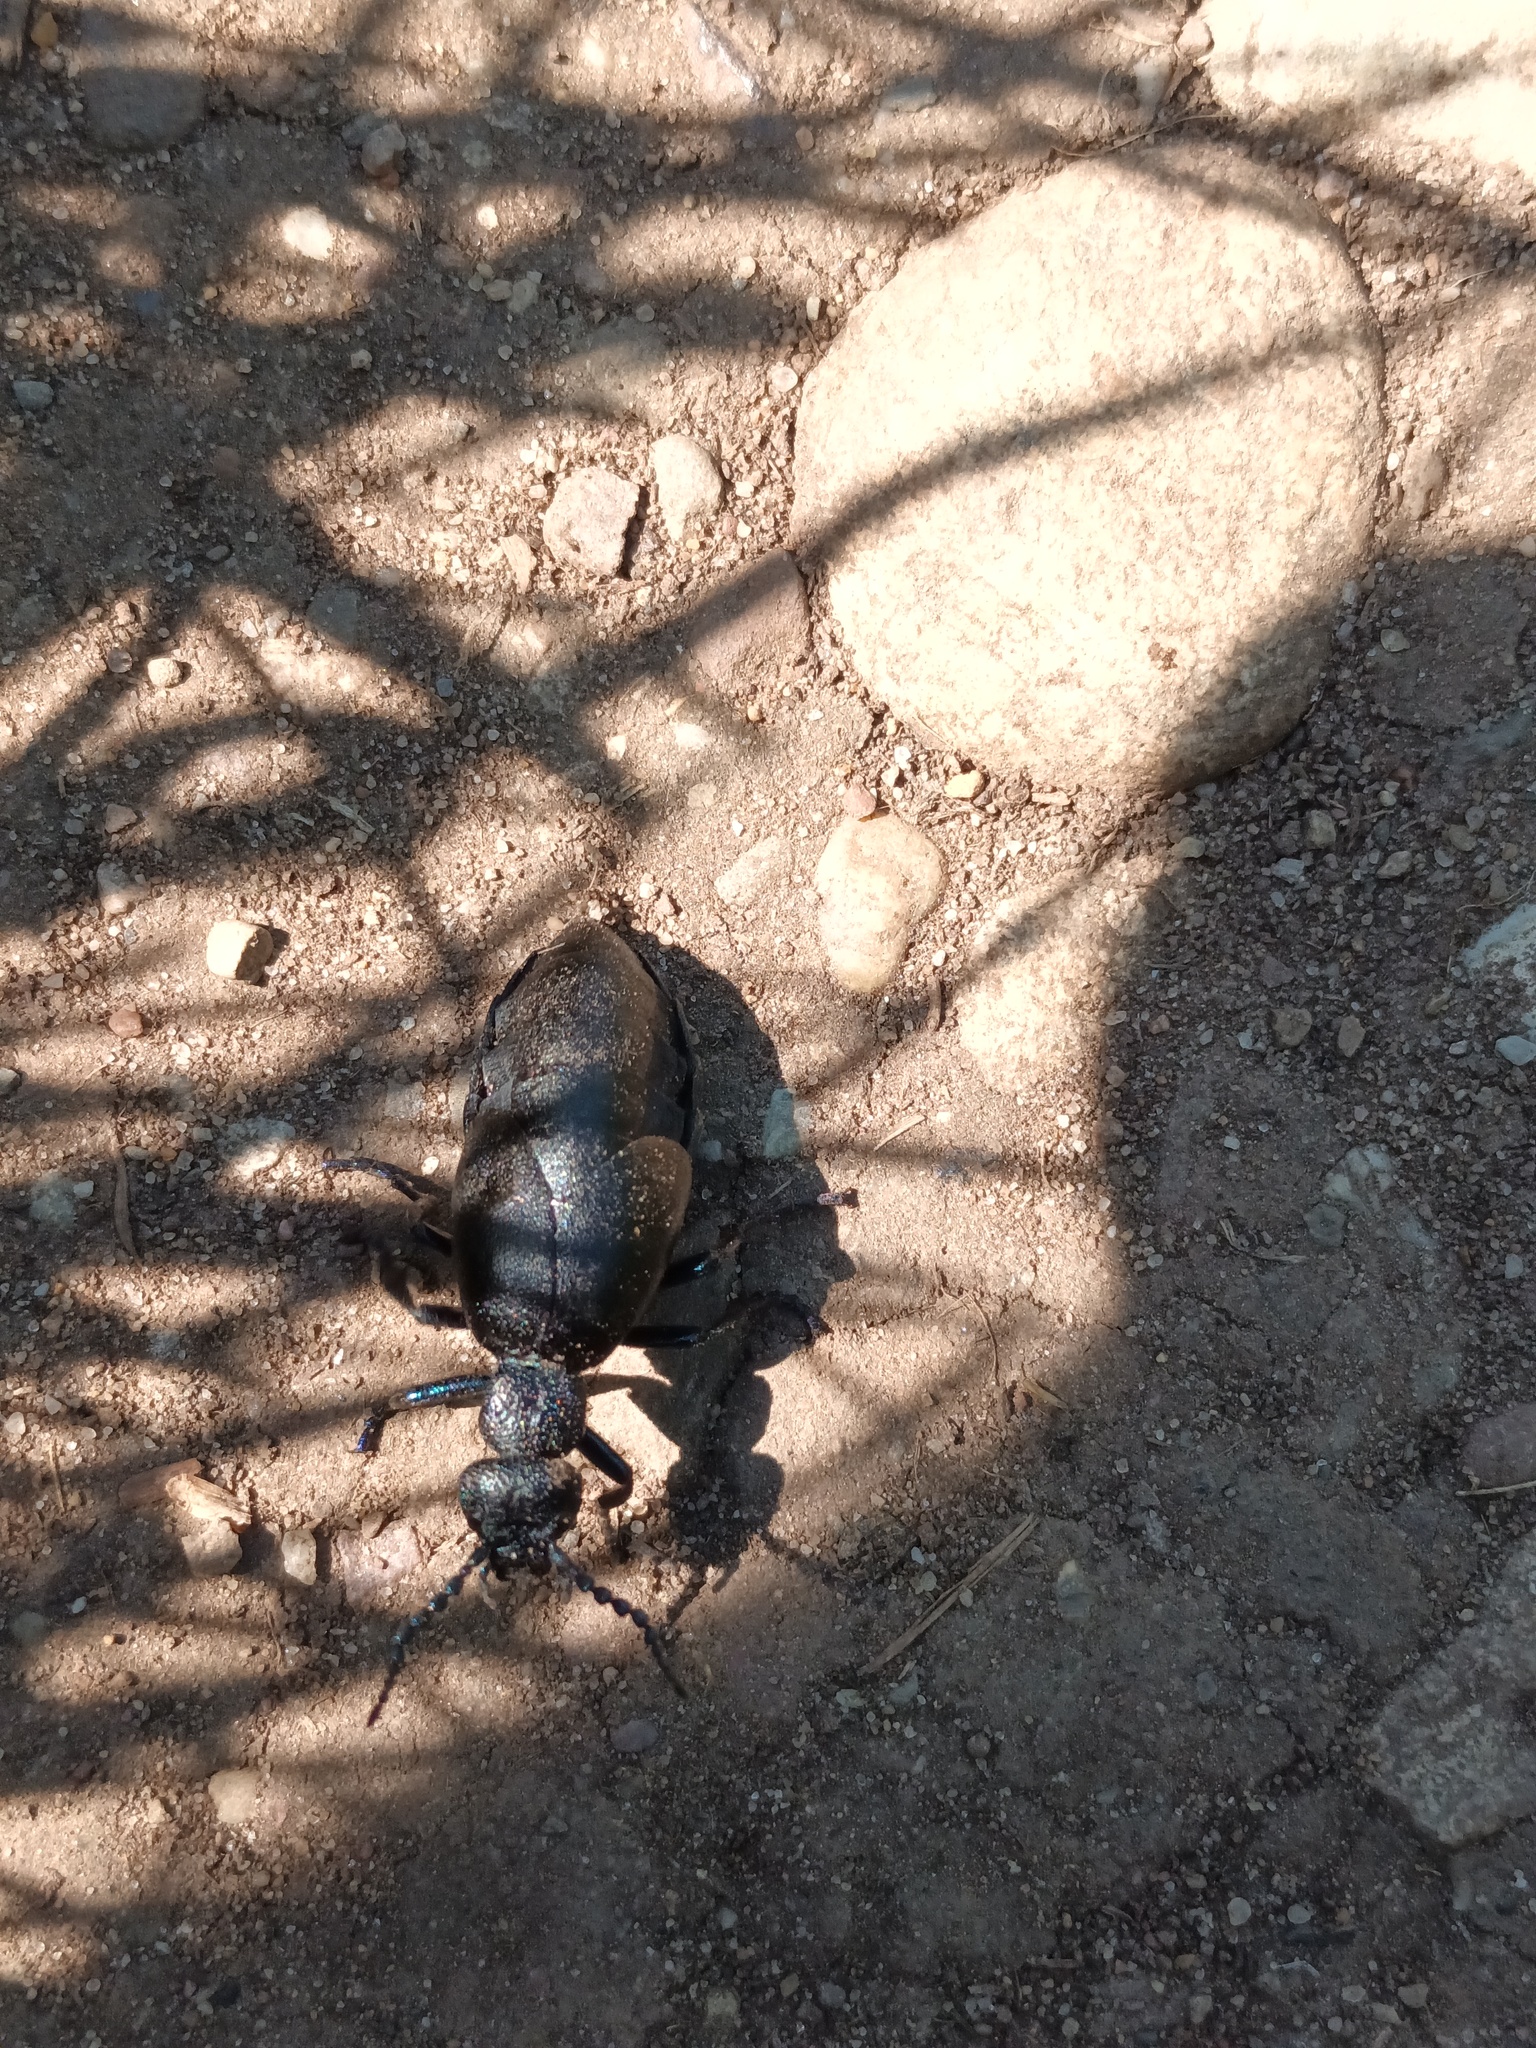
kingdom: Animalia
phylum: Arthropoda
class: Insecta
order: Coleoptera
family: Meloidae
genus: Meloe
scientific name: Meloe proscarabaeus
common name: Black oil-beetle
